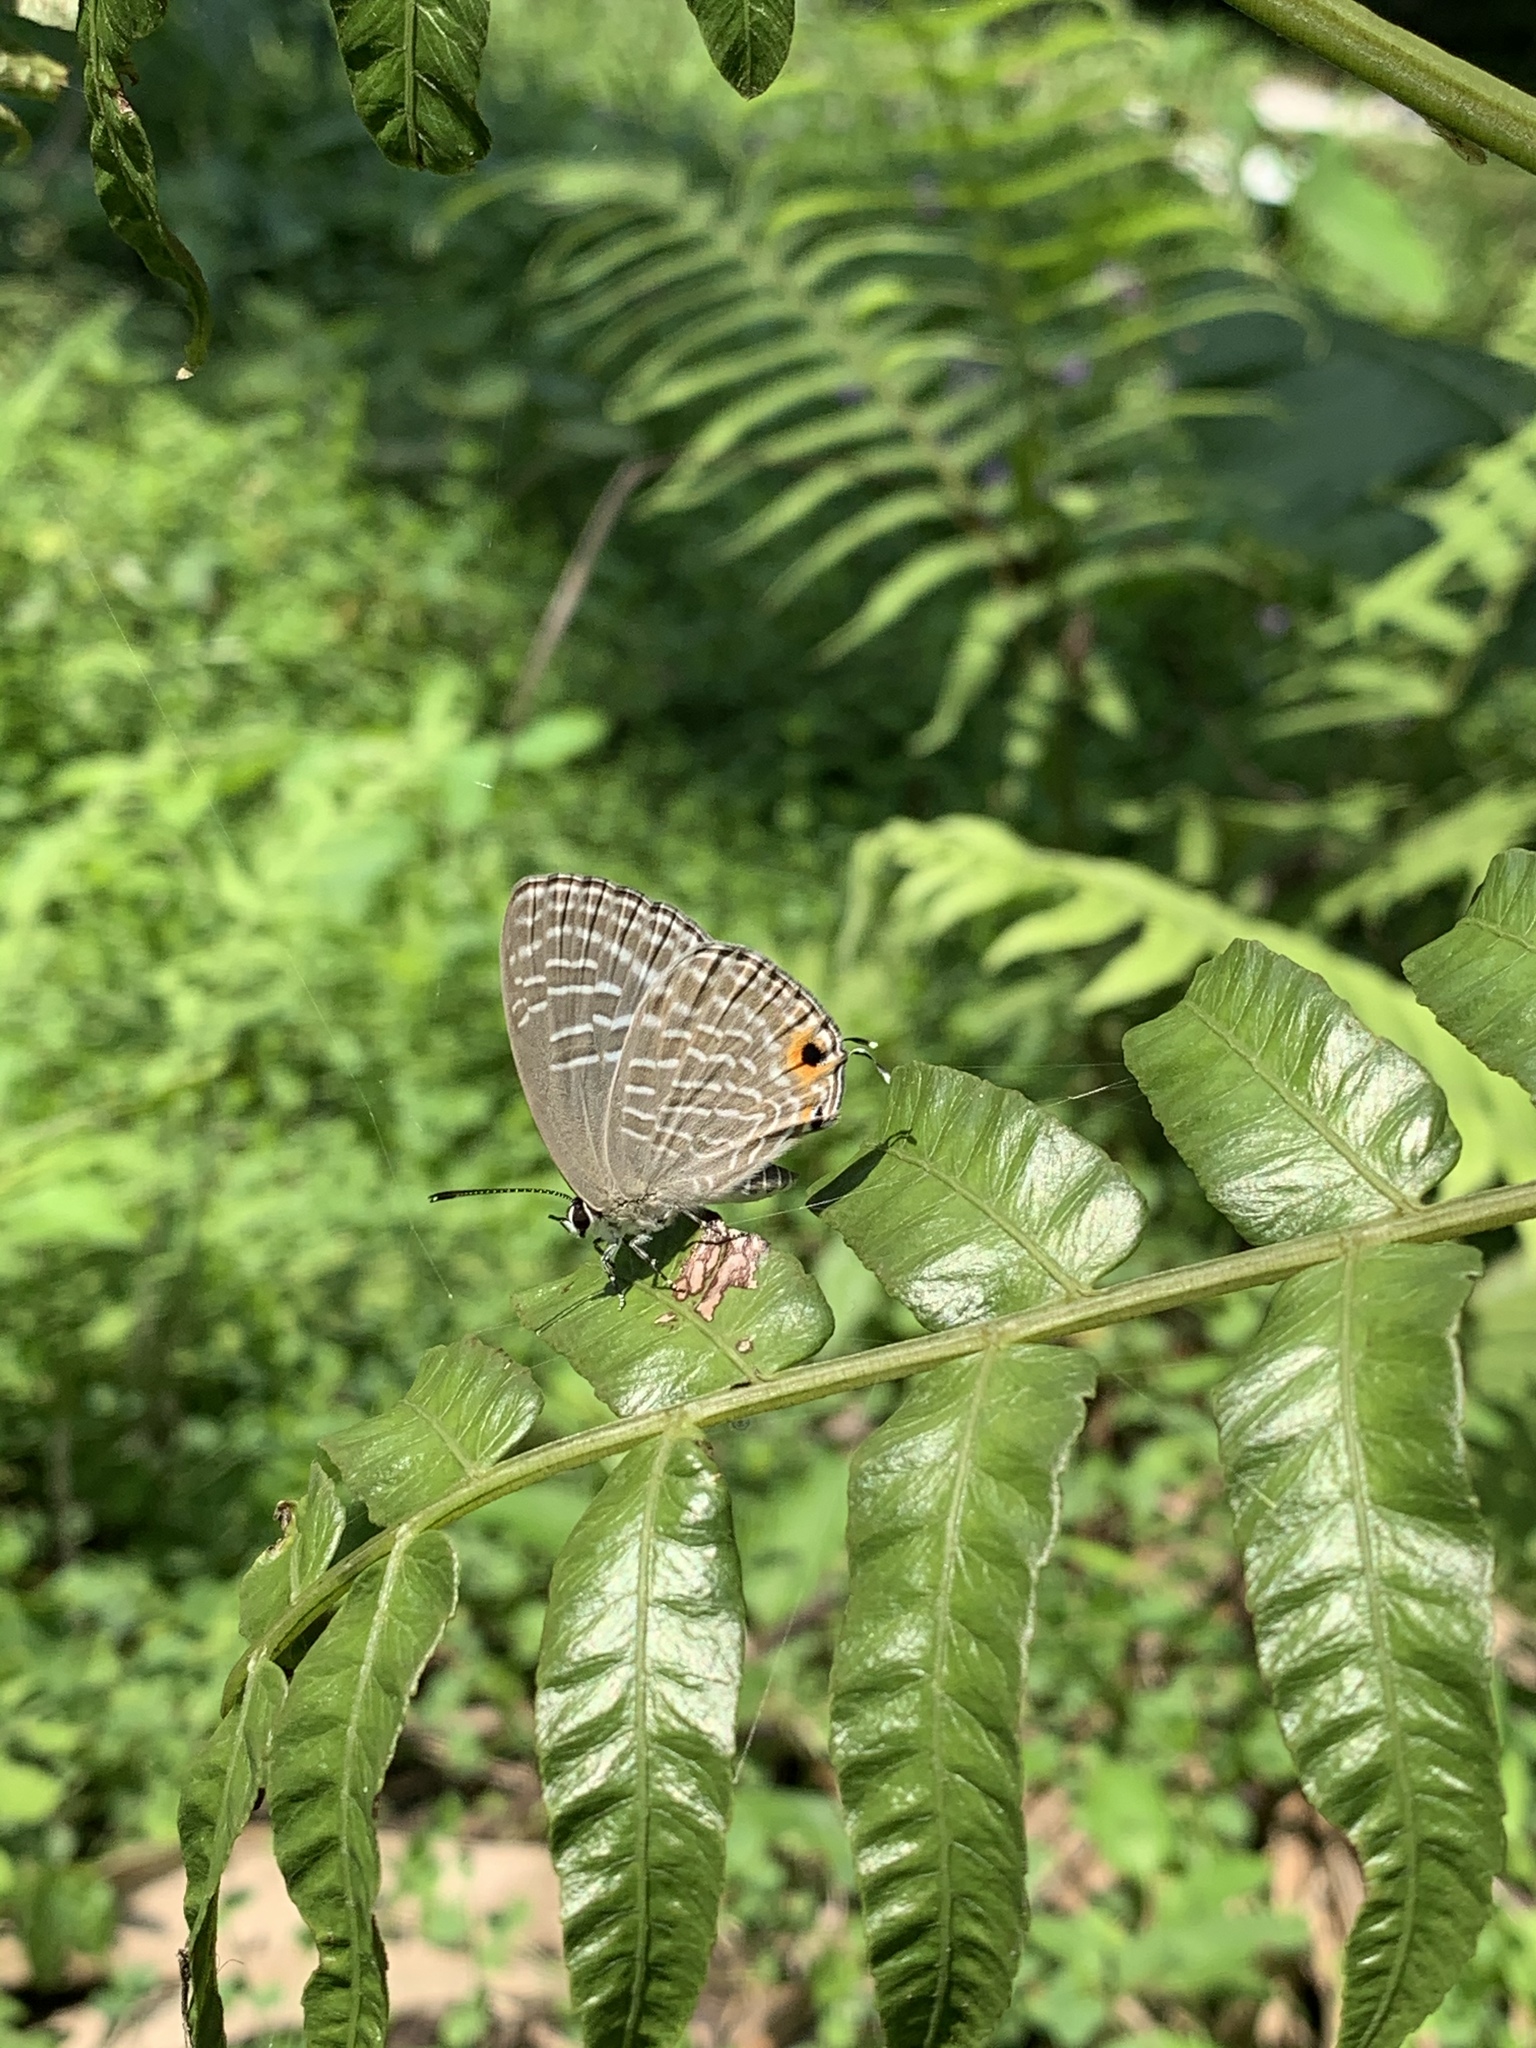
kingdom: Animalia
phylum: Arthropoda
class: Insecta
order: Lepidoptera
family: Lycaenidae
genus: Jamides
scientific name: Jamides alecto
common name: Metallic cerulean
